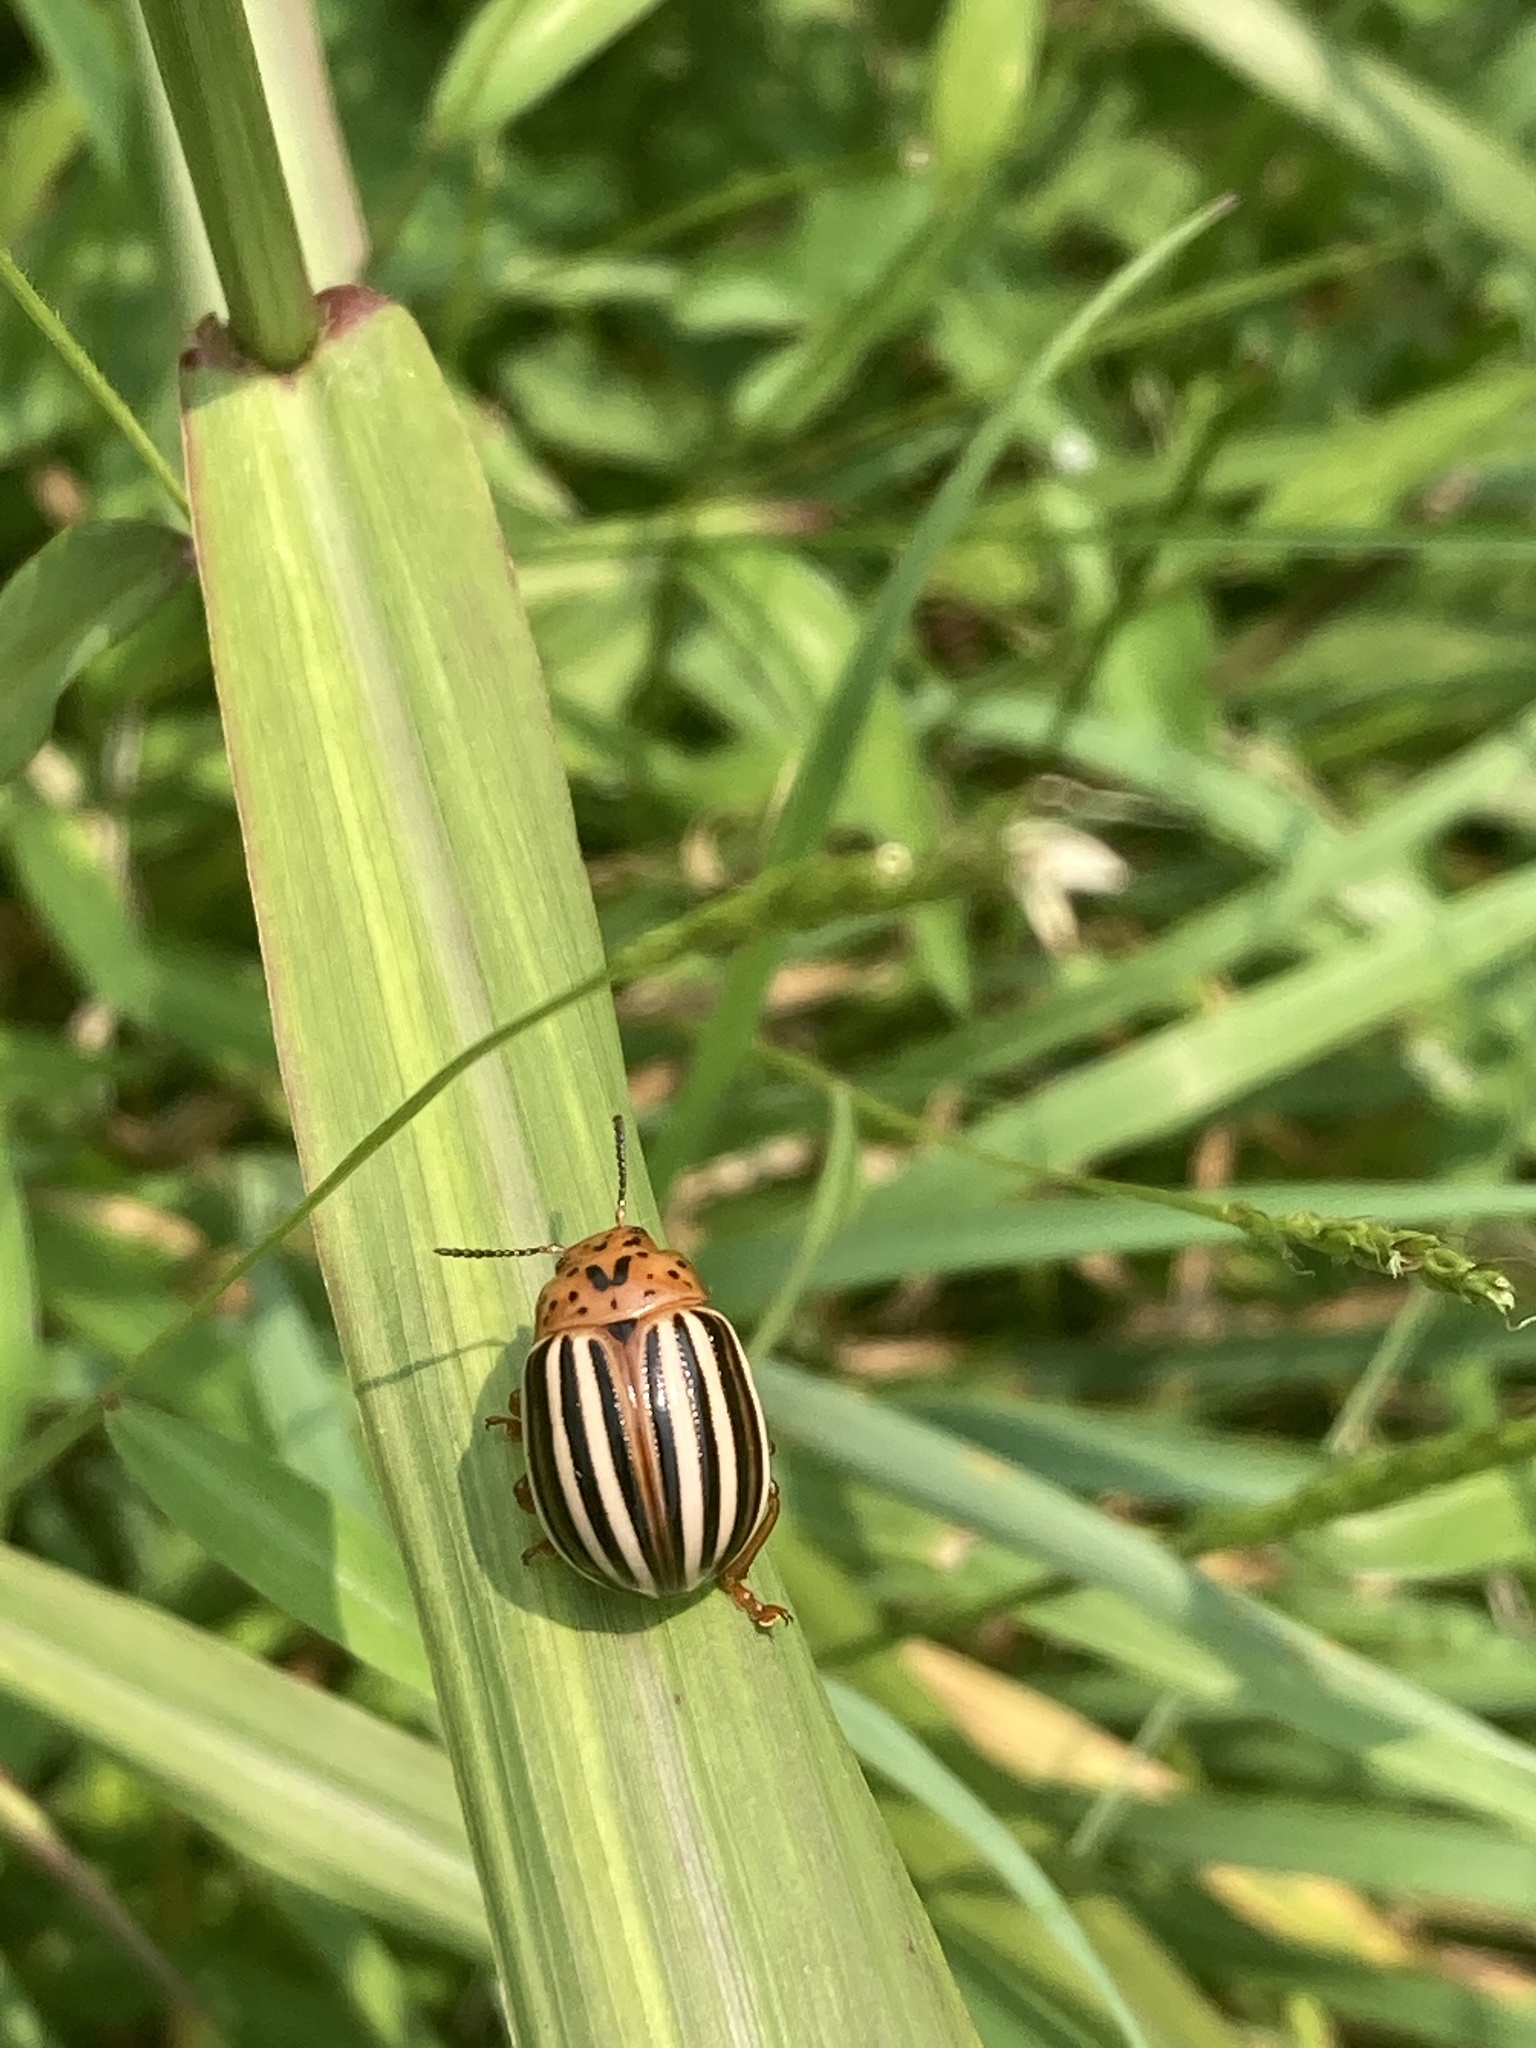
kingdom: Animalia
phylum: Arthropoda
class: Insecta
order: Coleoptera
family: Chrysomelidae
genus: Leptinotarsa
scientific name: Leptinotarsa juncta
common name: False potato beetle
